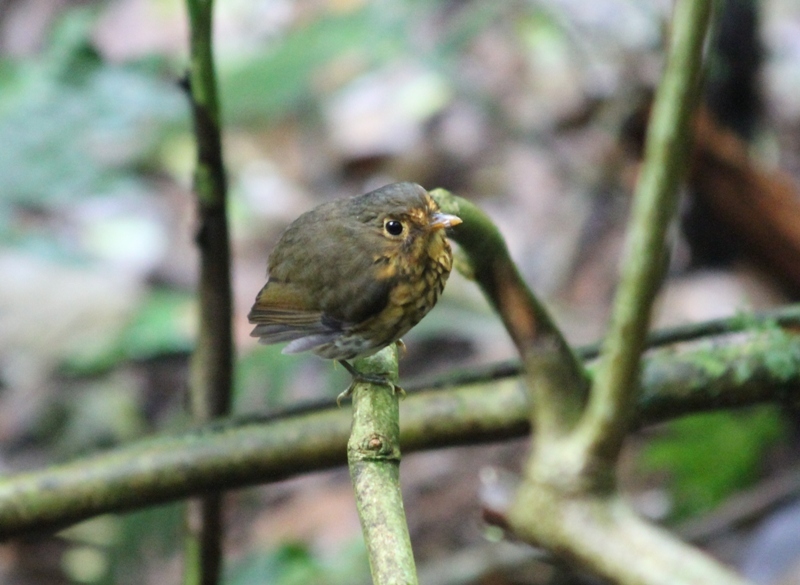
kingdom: Animalia
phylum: Chordata
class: Aves
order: Passeriformes
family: Grallariidae
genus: Grallaricula
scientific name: Grallaricula flavirostris
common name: Ochre-breasted antpitta
